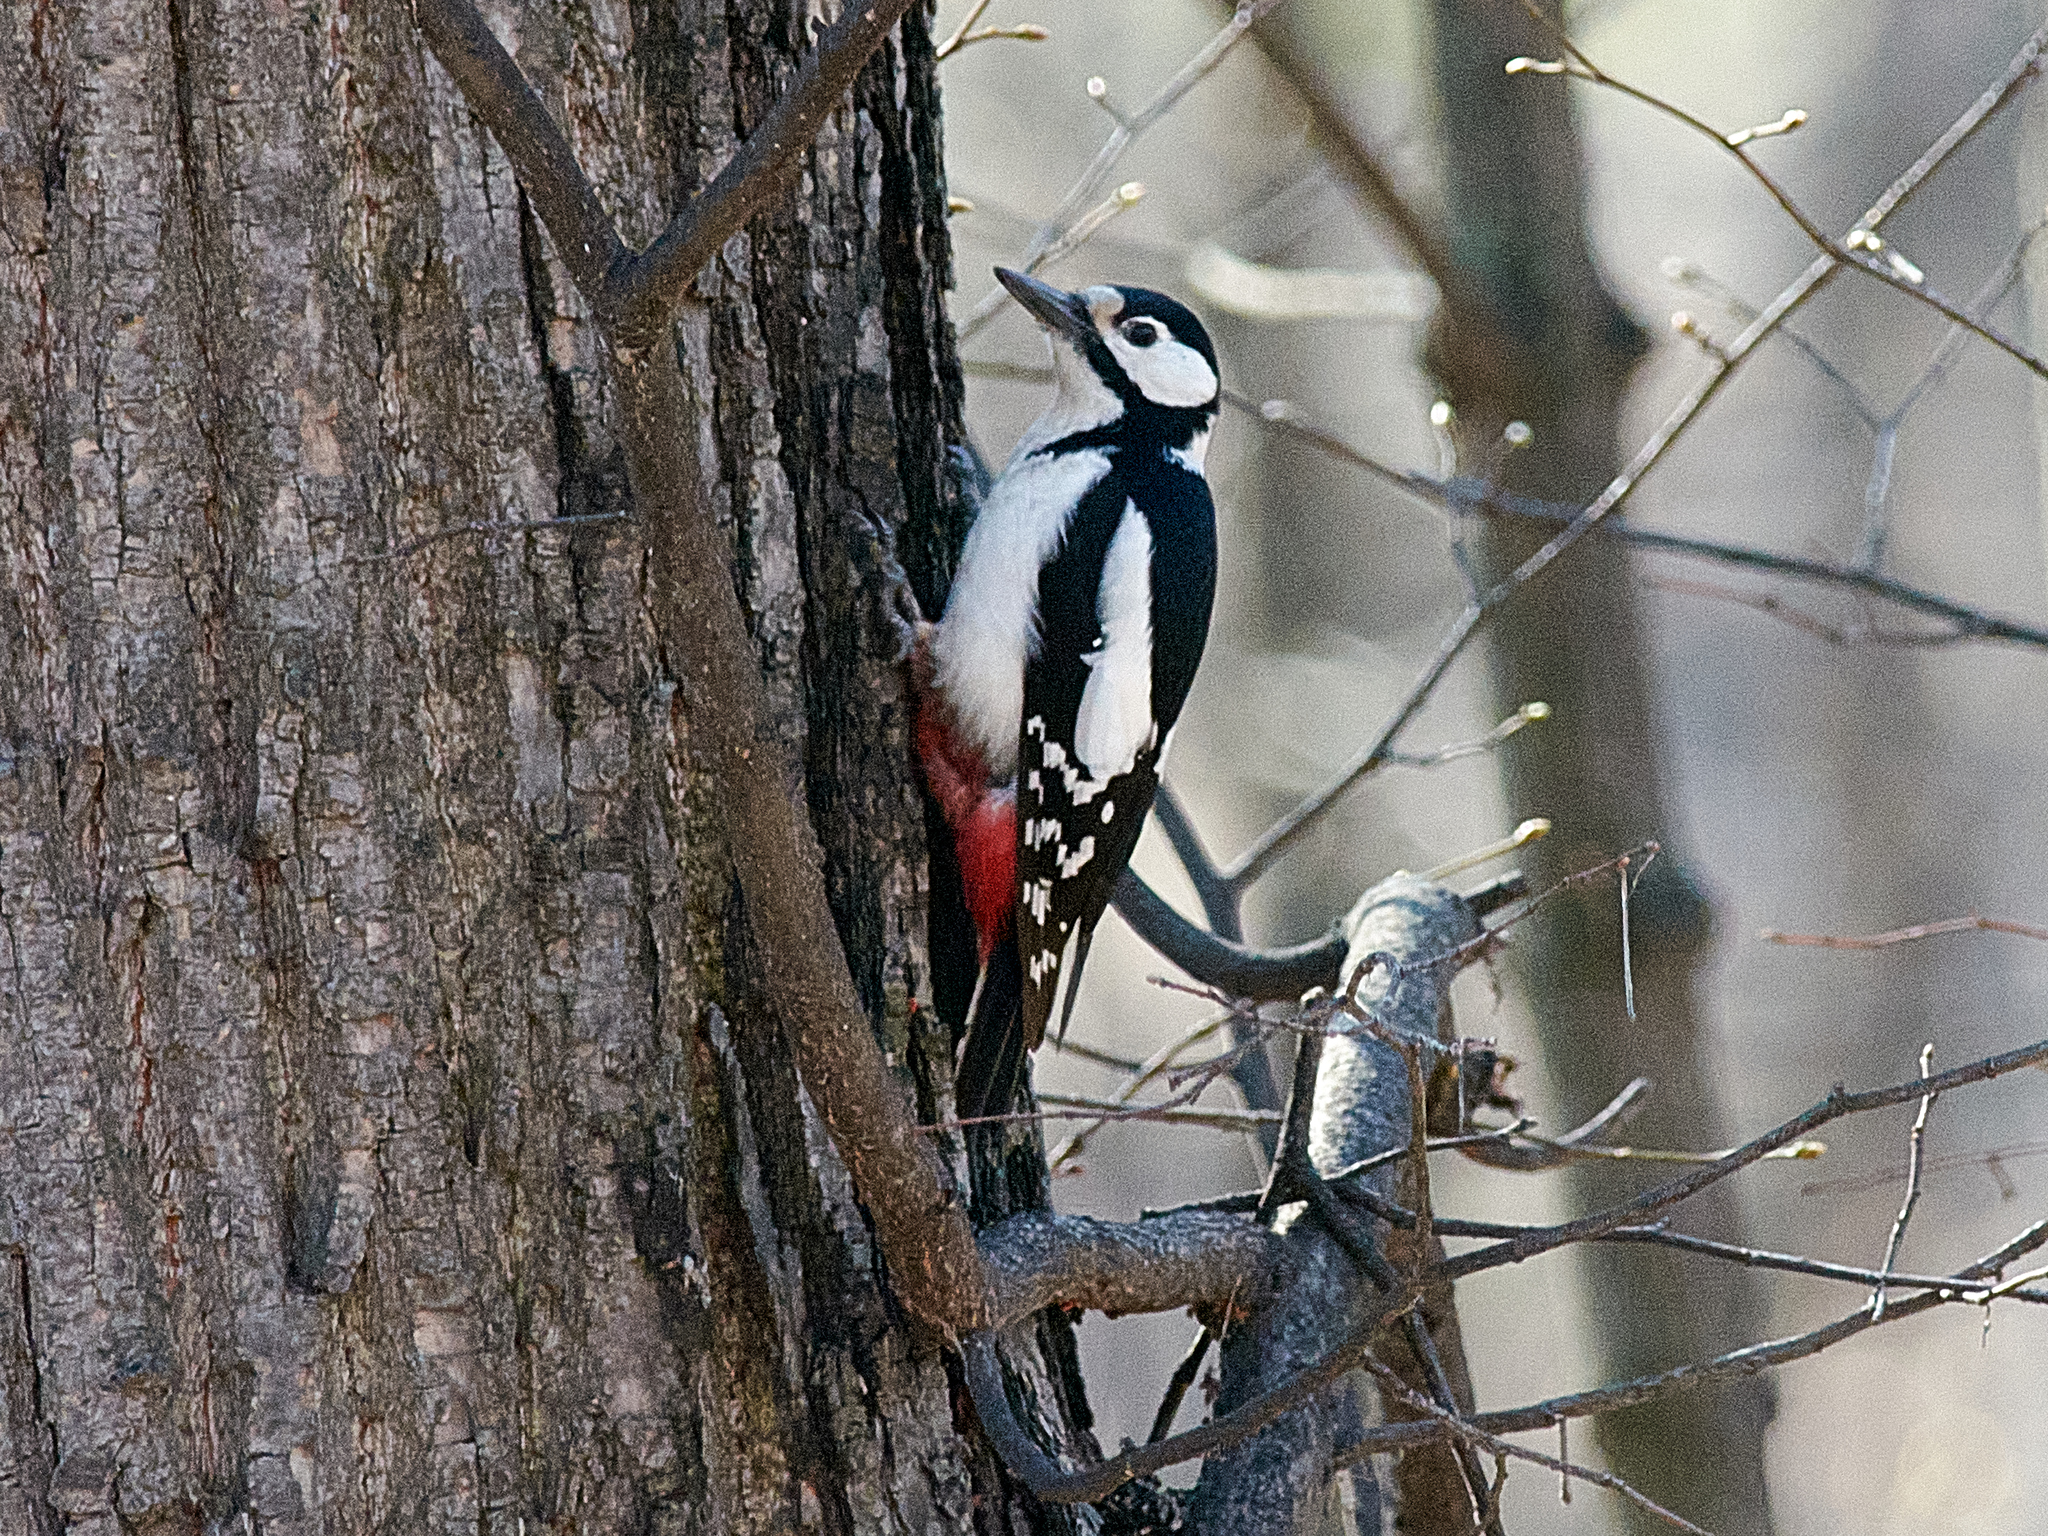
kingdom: Animalia
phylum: Chordata
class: Aves
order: Piciformes
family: Picidae
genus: Dendrocopos
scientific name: Dendrocopos major
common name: Great spotted woodpecker
